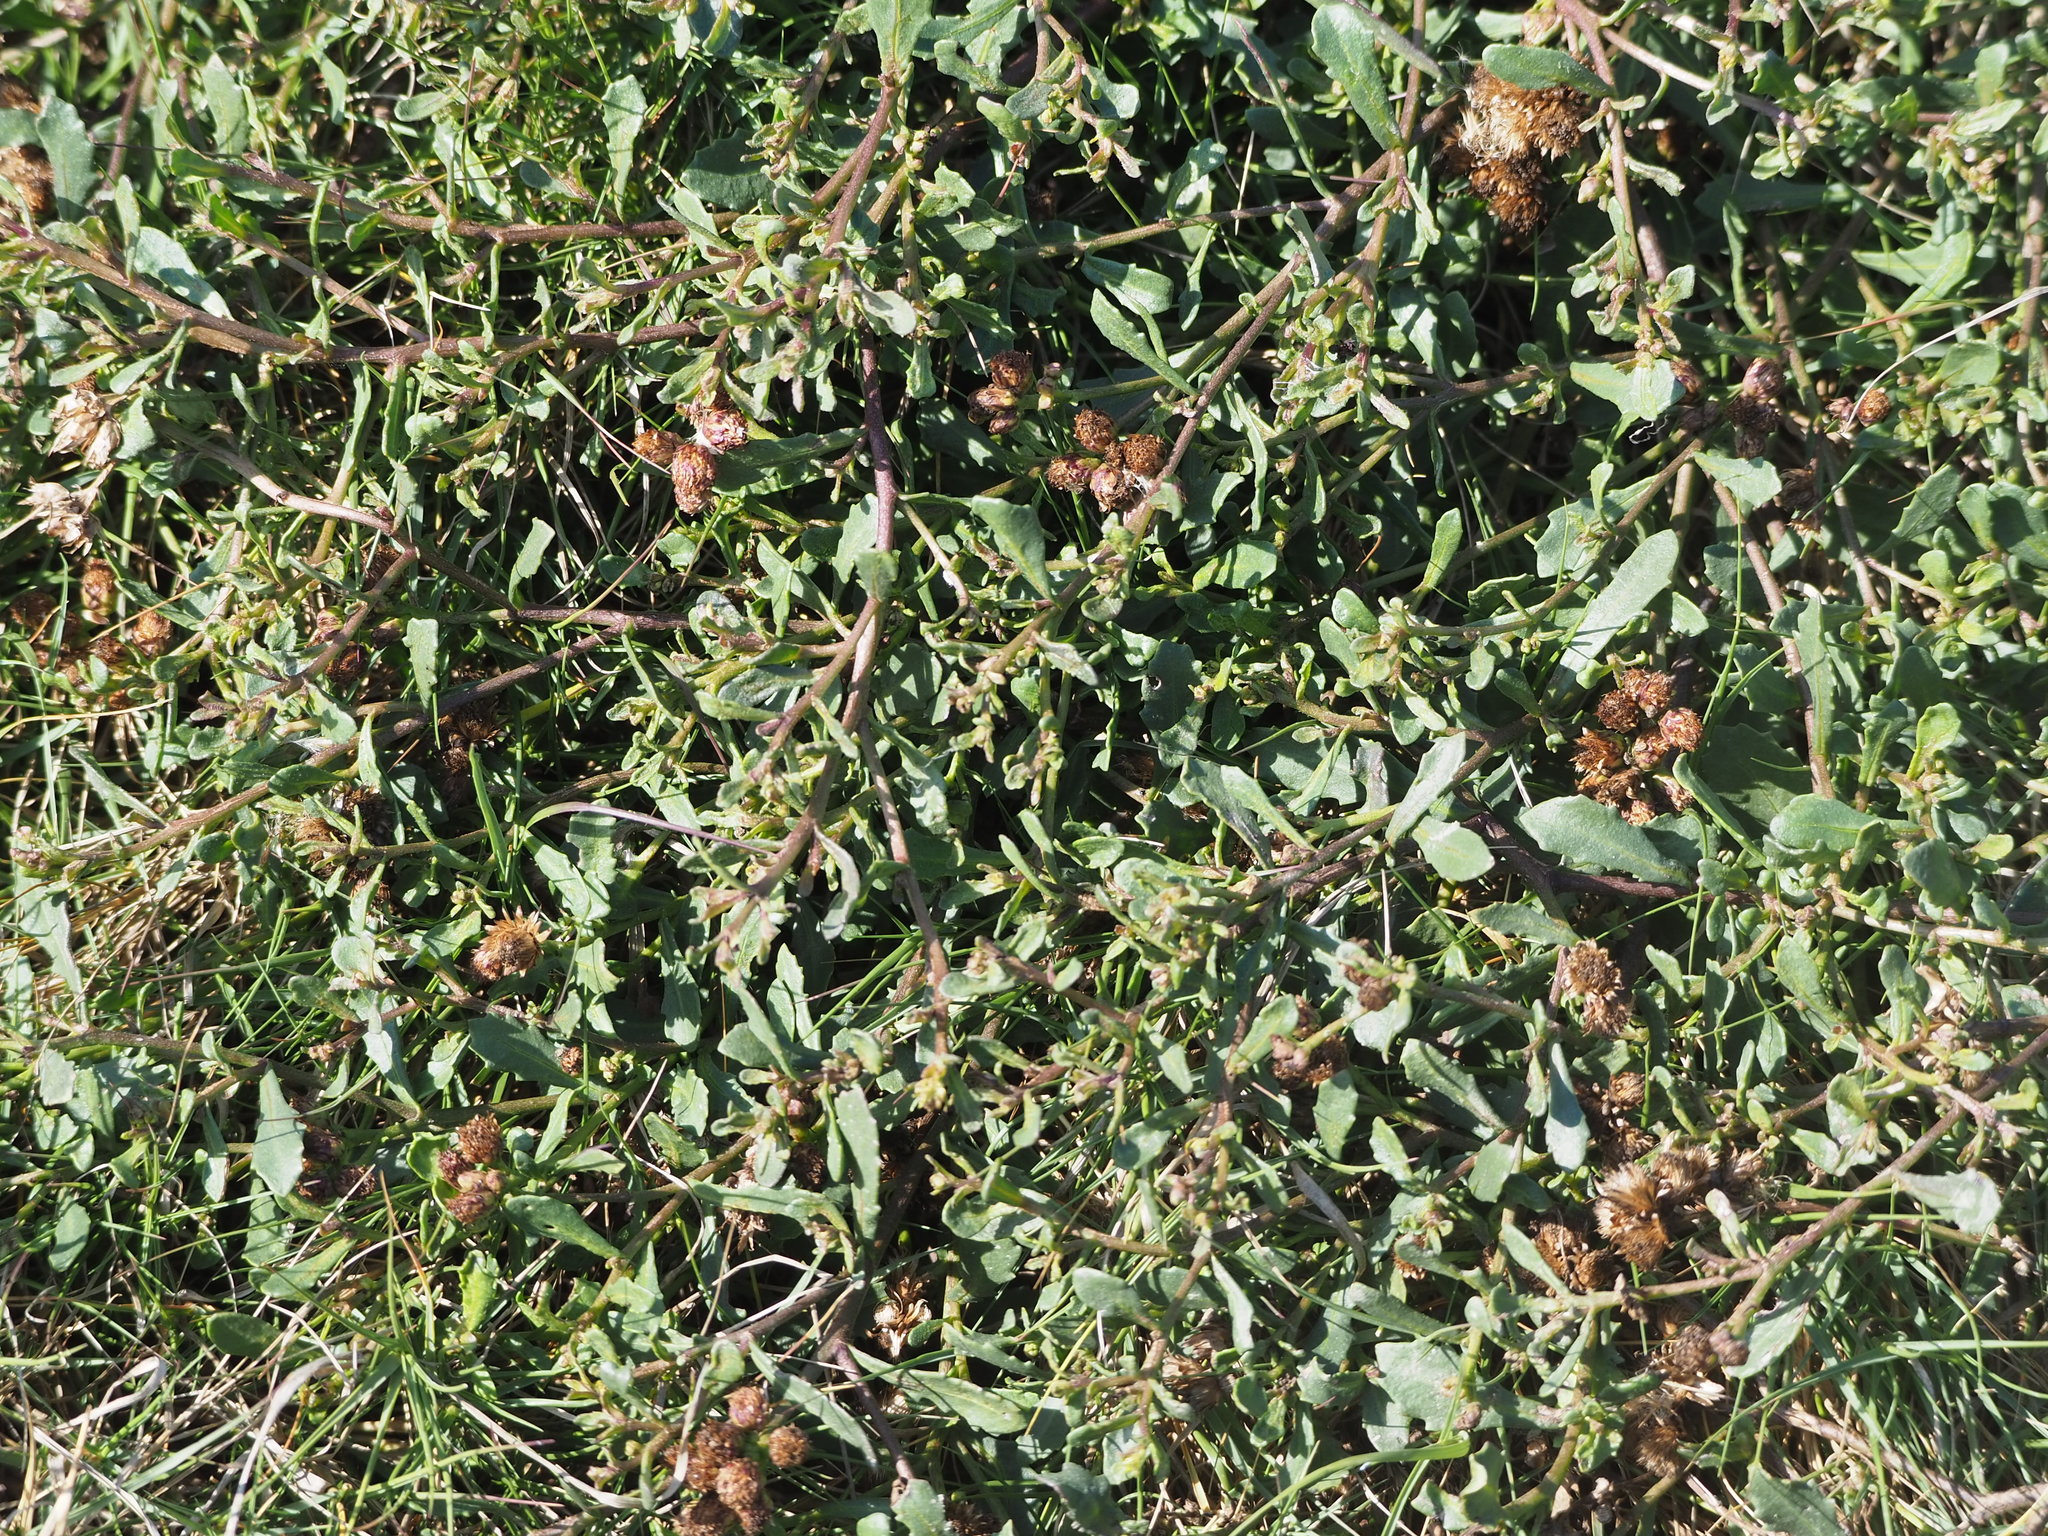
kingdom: Plantae
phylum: Tracheophyta
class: Magnoliopsida
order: Asterales
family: Asteraceae
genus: Pluchea
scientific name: Pluchea pteropoda
